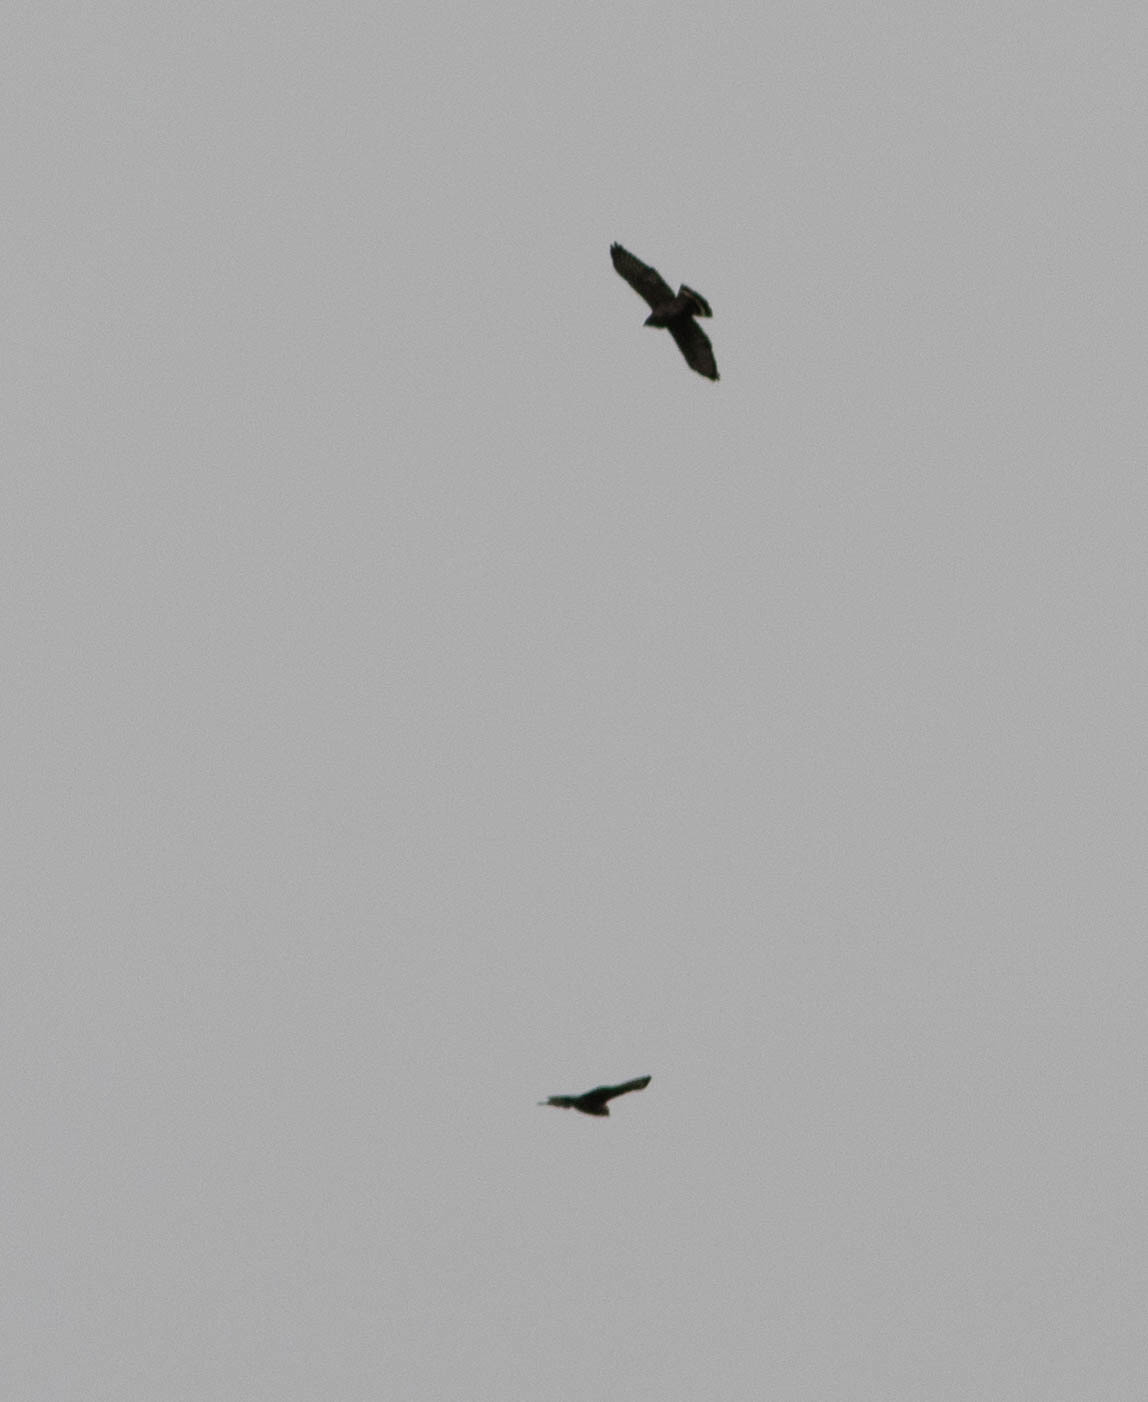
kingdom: Animalia
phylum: Chordata
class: Aves
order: Accipitriformes
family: Accipitridae
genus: Buteo
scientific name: Buteo platypterus
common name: Broad-winged hawk
